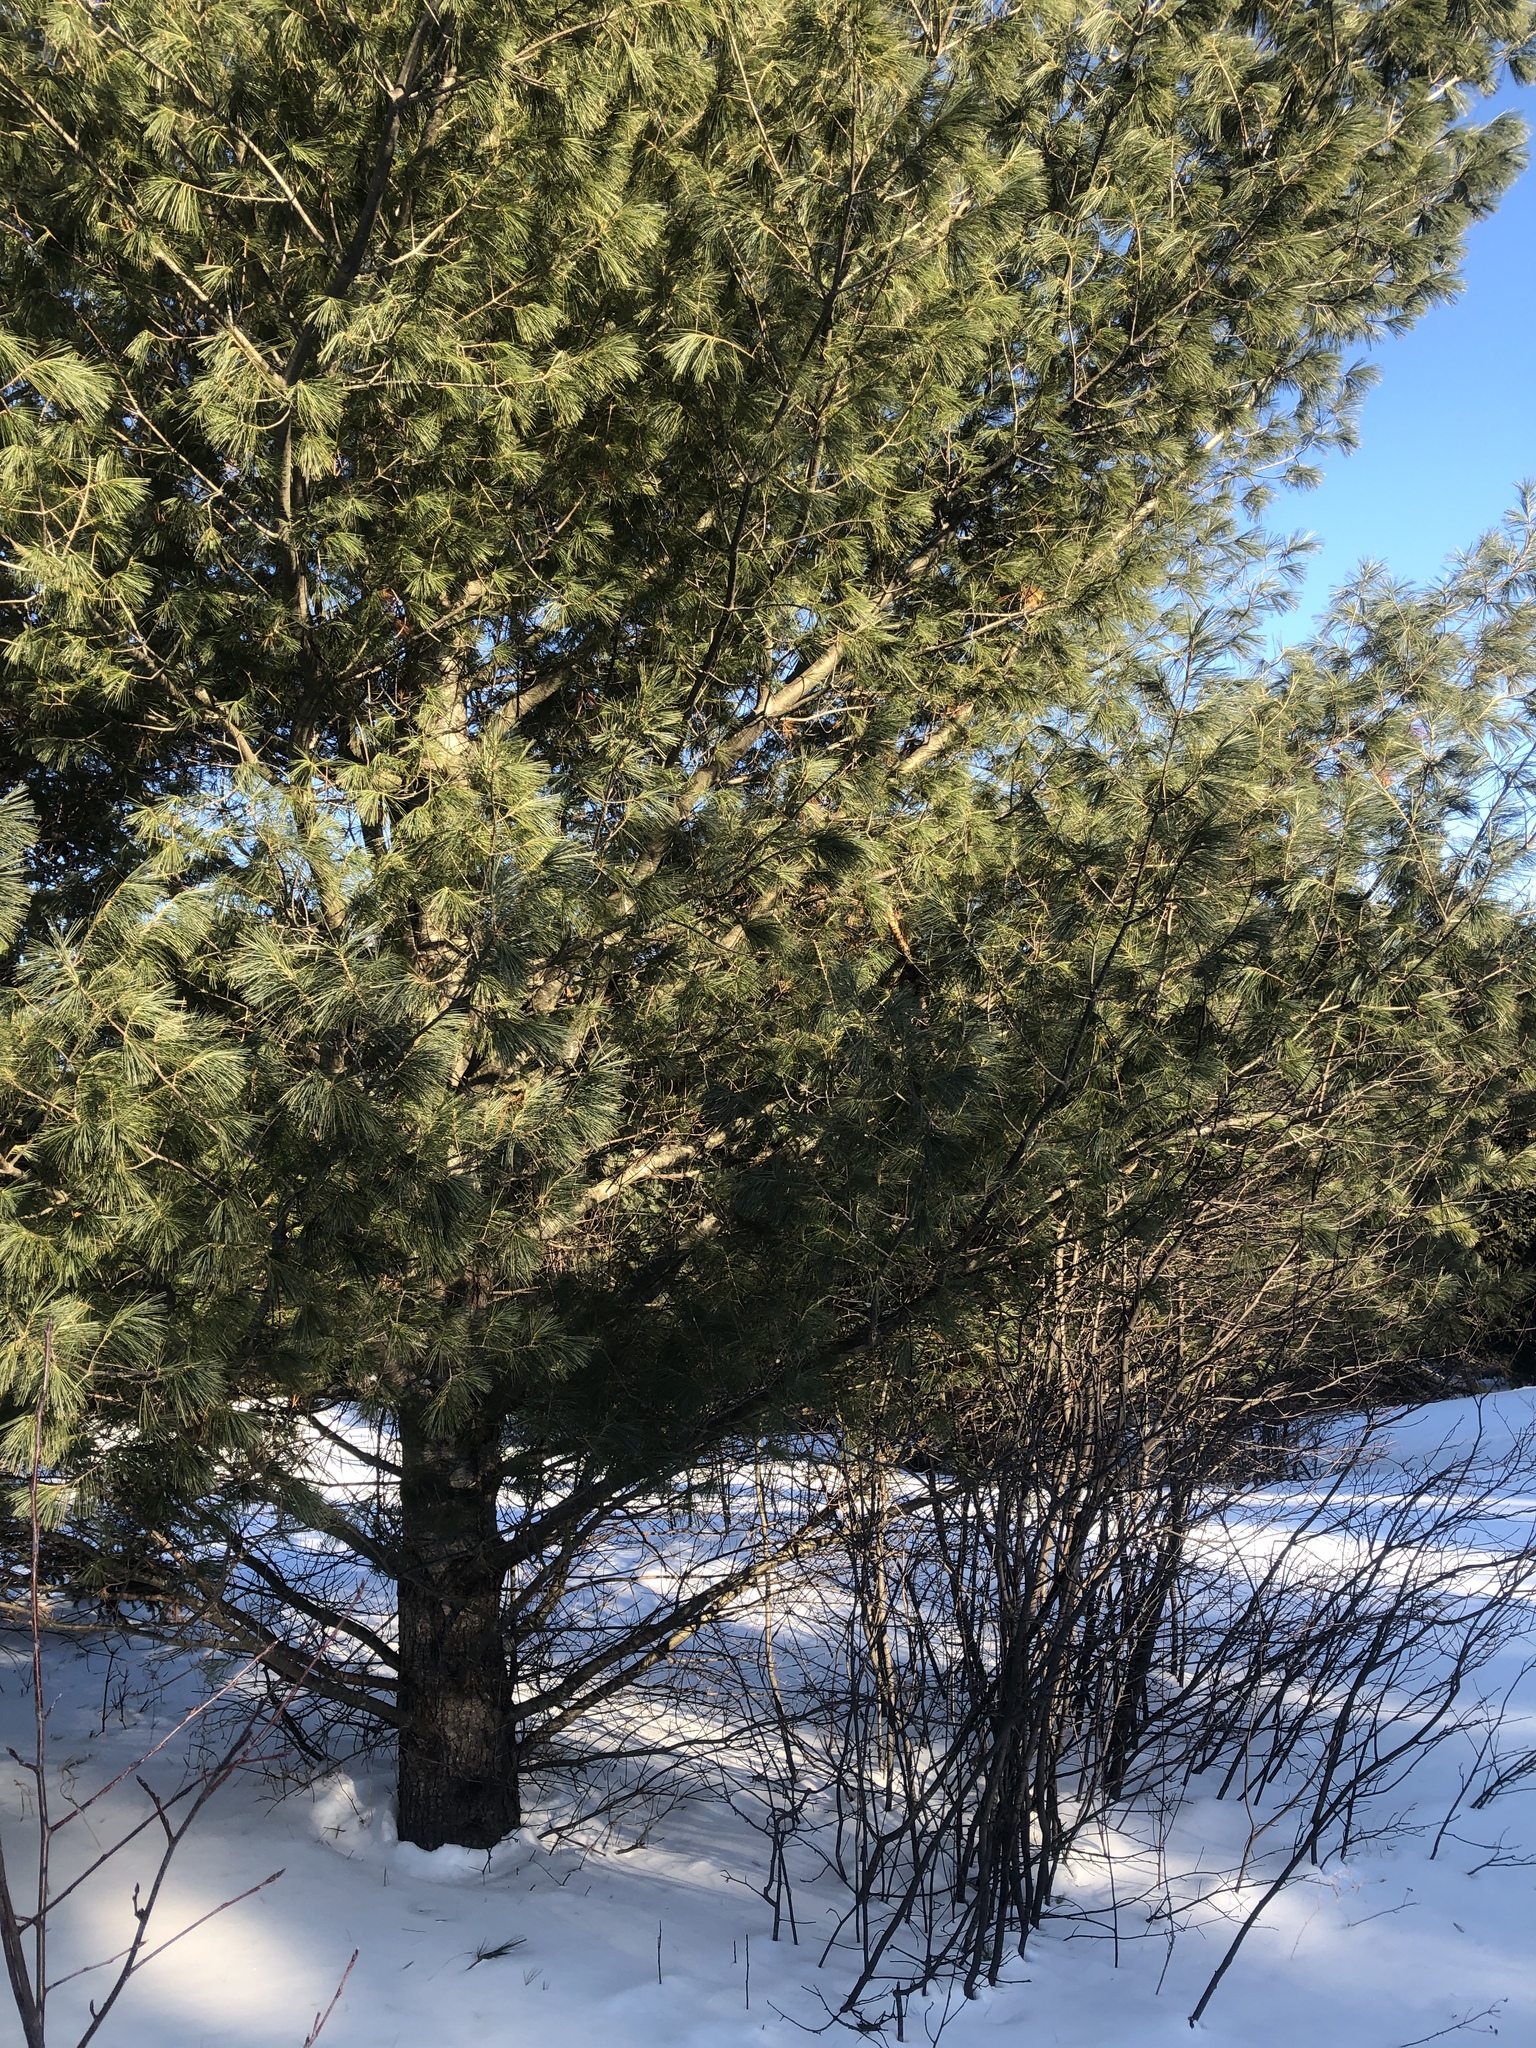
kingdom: Plantae
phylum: Tracheophyta
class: Pinopsida
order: Pinales
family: Pinaceae
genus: Pinus
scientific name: Pinus strobus
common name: Weymouth pine
